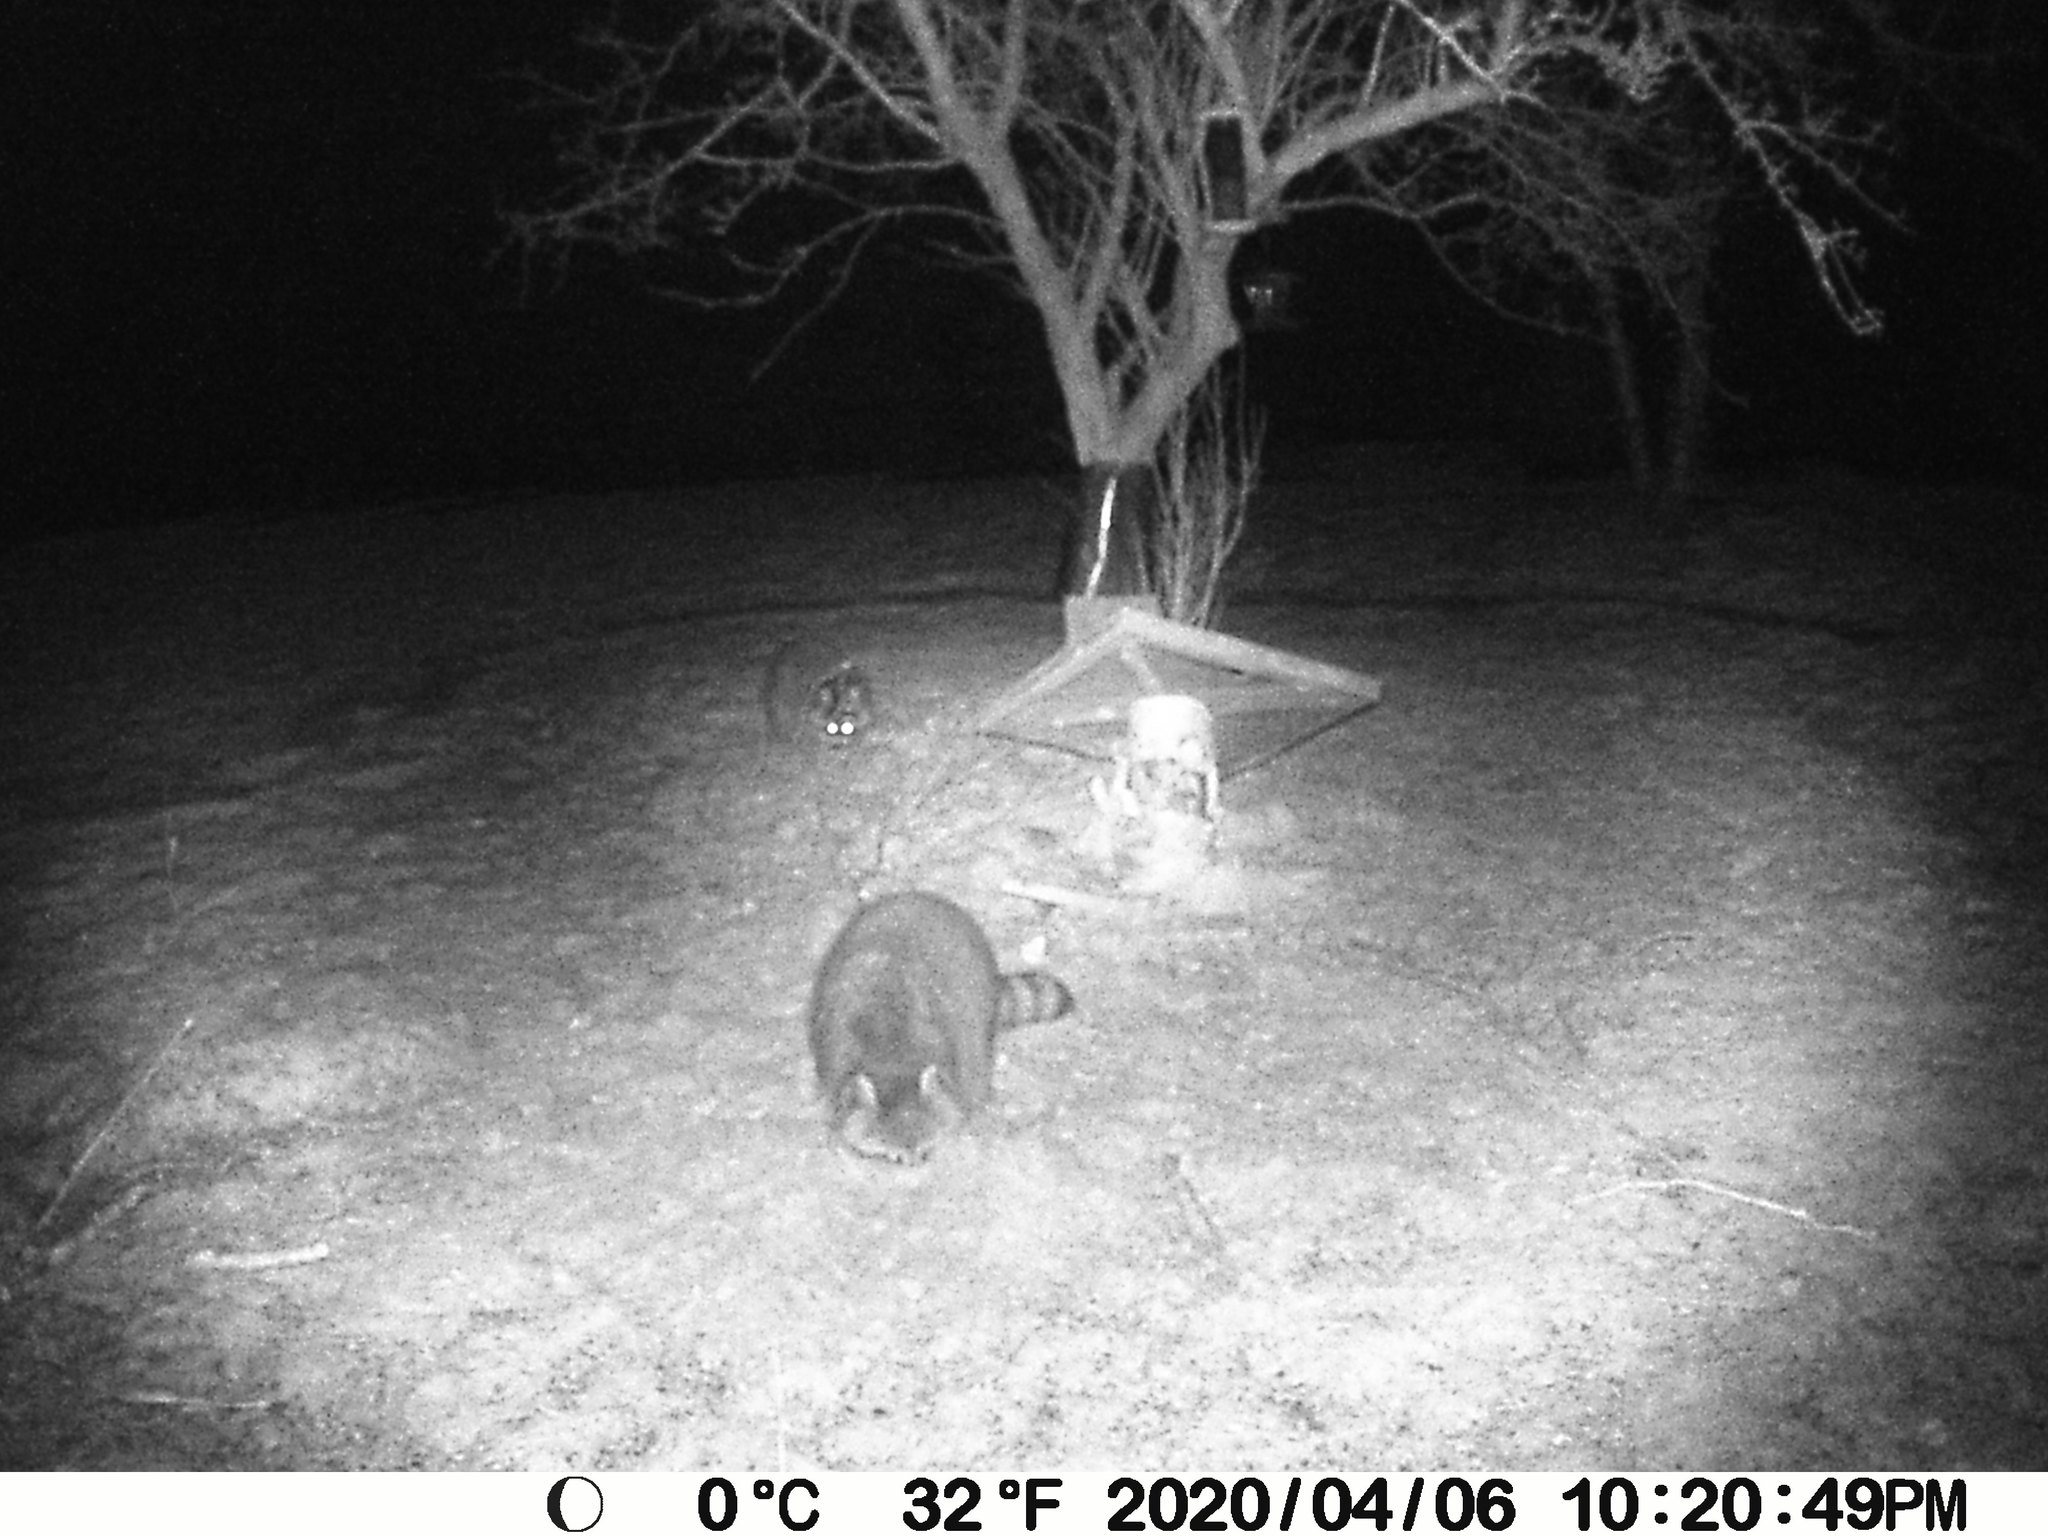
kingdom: Animalia
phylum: Chordata
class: Mammalia
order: Carnivora
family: Procyonidae
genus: Procyon
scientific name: Procyon lotor
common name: Raccoon
